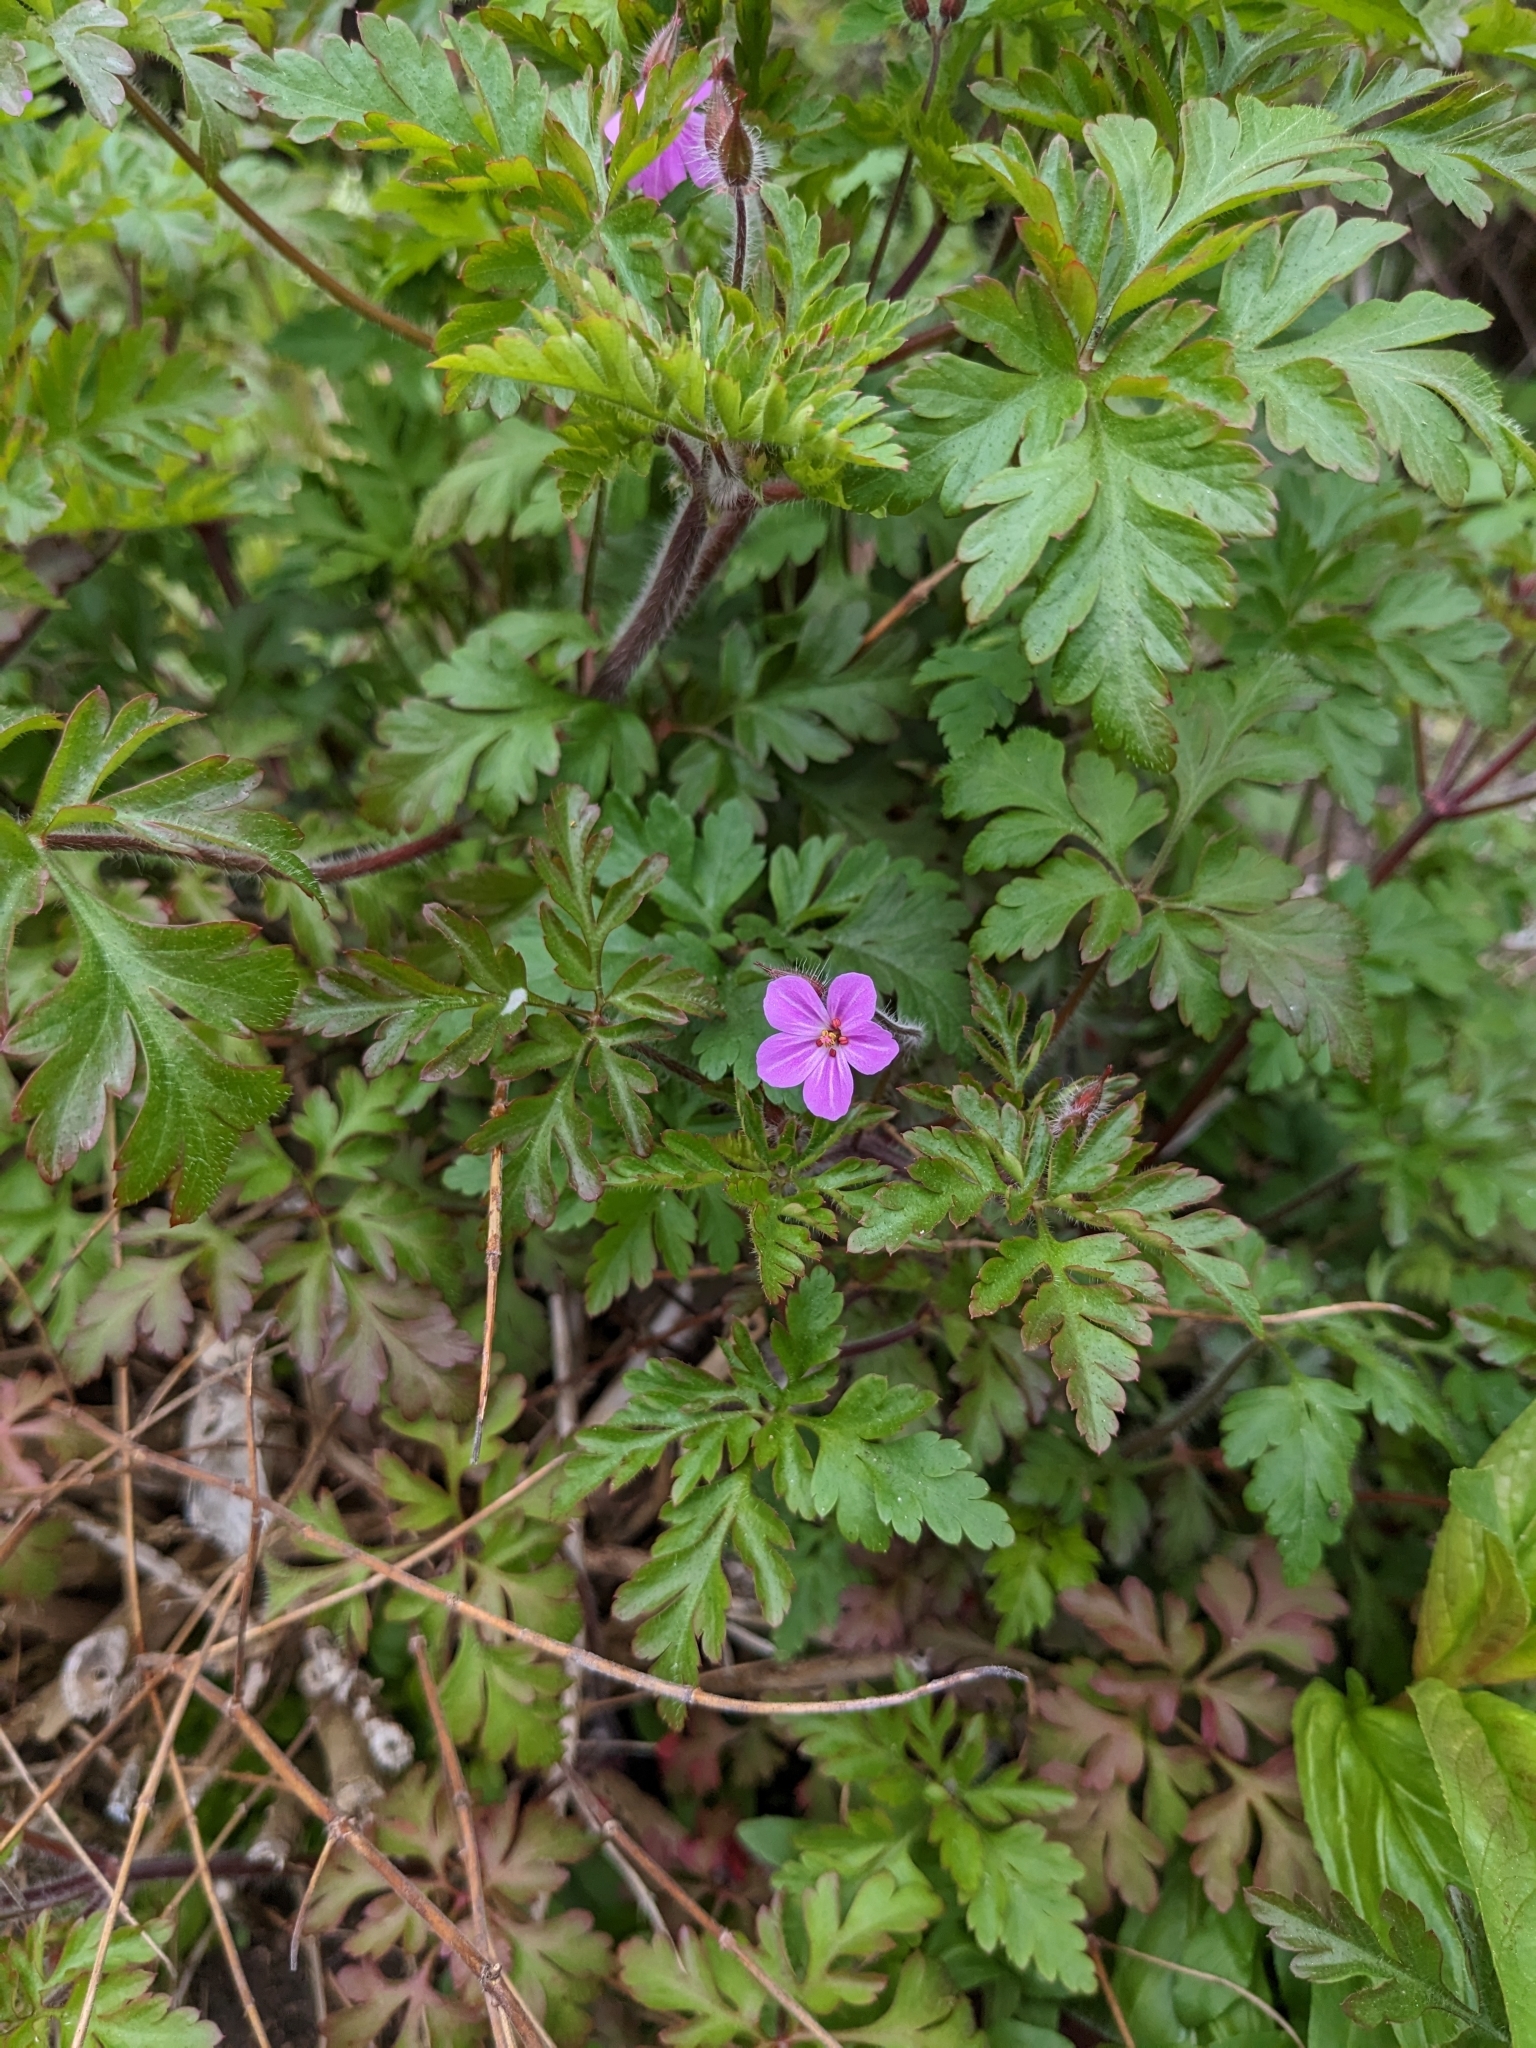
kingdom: Plantae
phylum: Tracheophyta
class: Magnoliopsida
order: Geraniales
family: Geraniaceae
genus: Geranium
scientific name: Geranium robertianum
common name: Herb-robert
